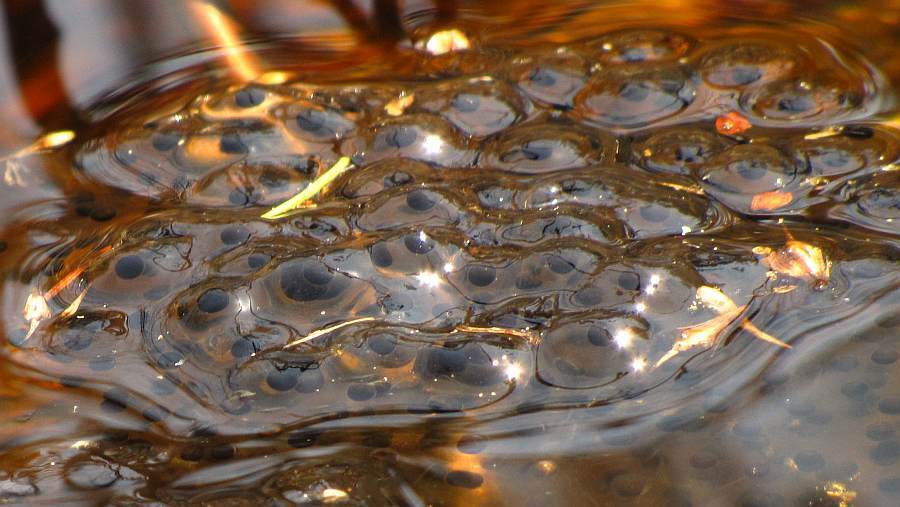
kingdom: Animalia
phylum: Chordata
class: Amphibia
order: Anura
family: Ranidae
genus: Lithobates
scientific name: Lithobates sylvaticus
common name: Wood frog
